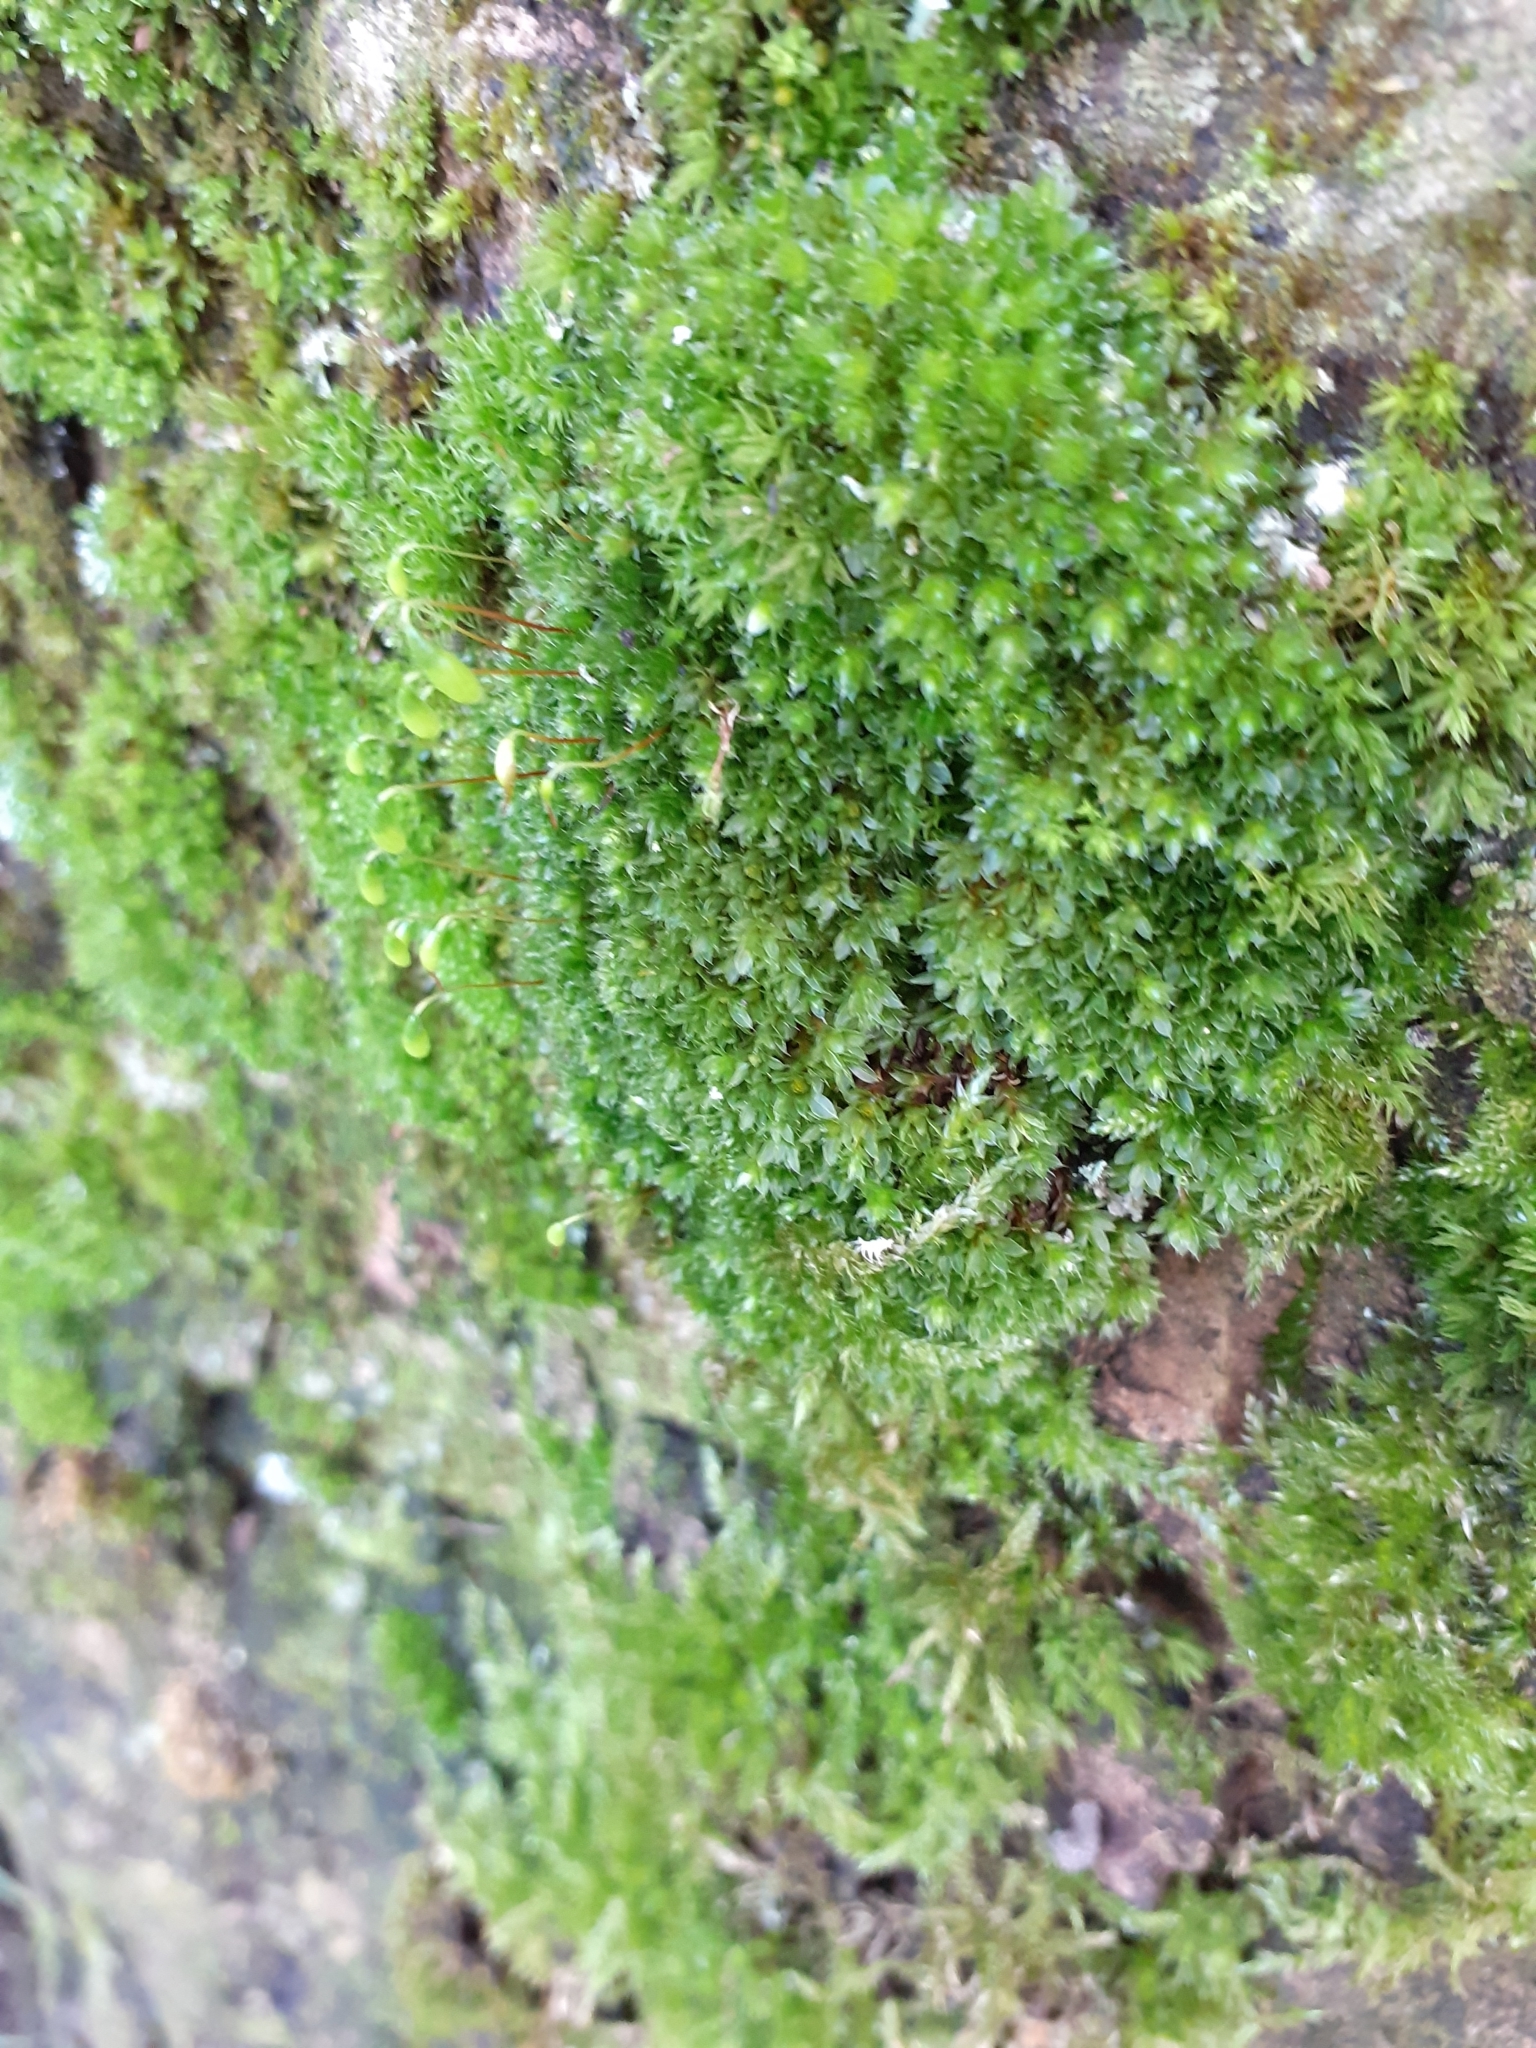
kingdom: Plantae
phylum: Bryophyta
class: Bryopsida
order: Bryales
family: Bryaceae
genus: Rosulabryum
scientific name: Rosulabryum capillare
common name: Capillary thread-moss
